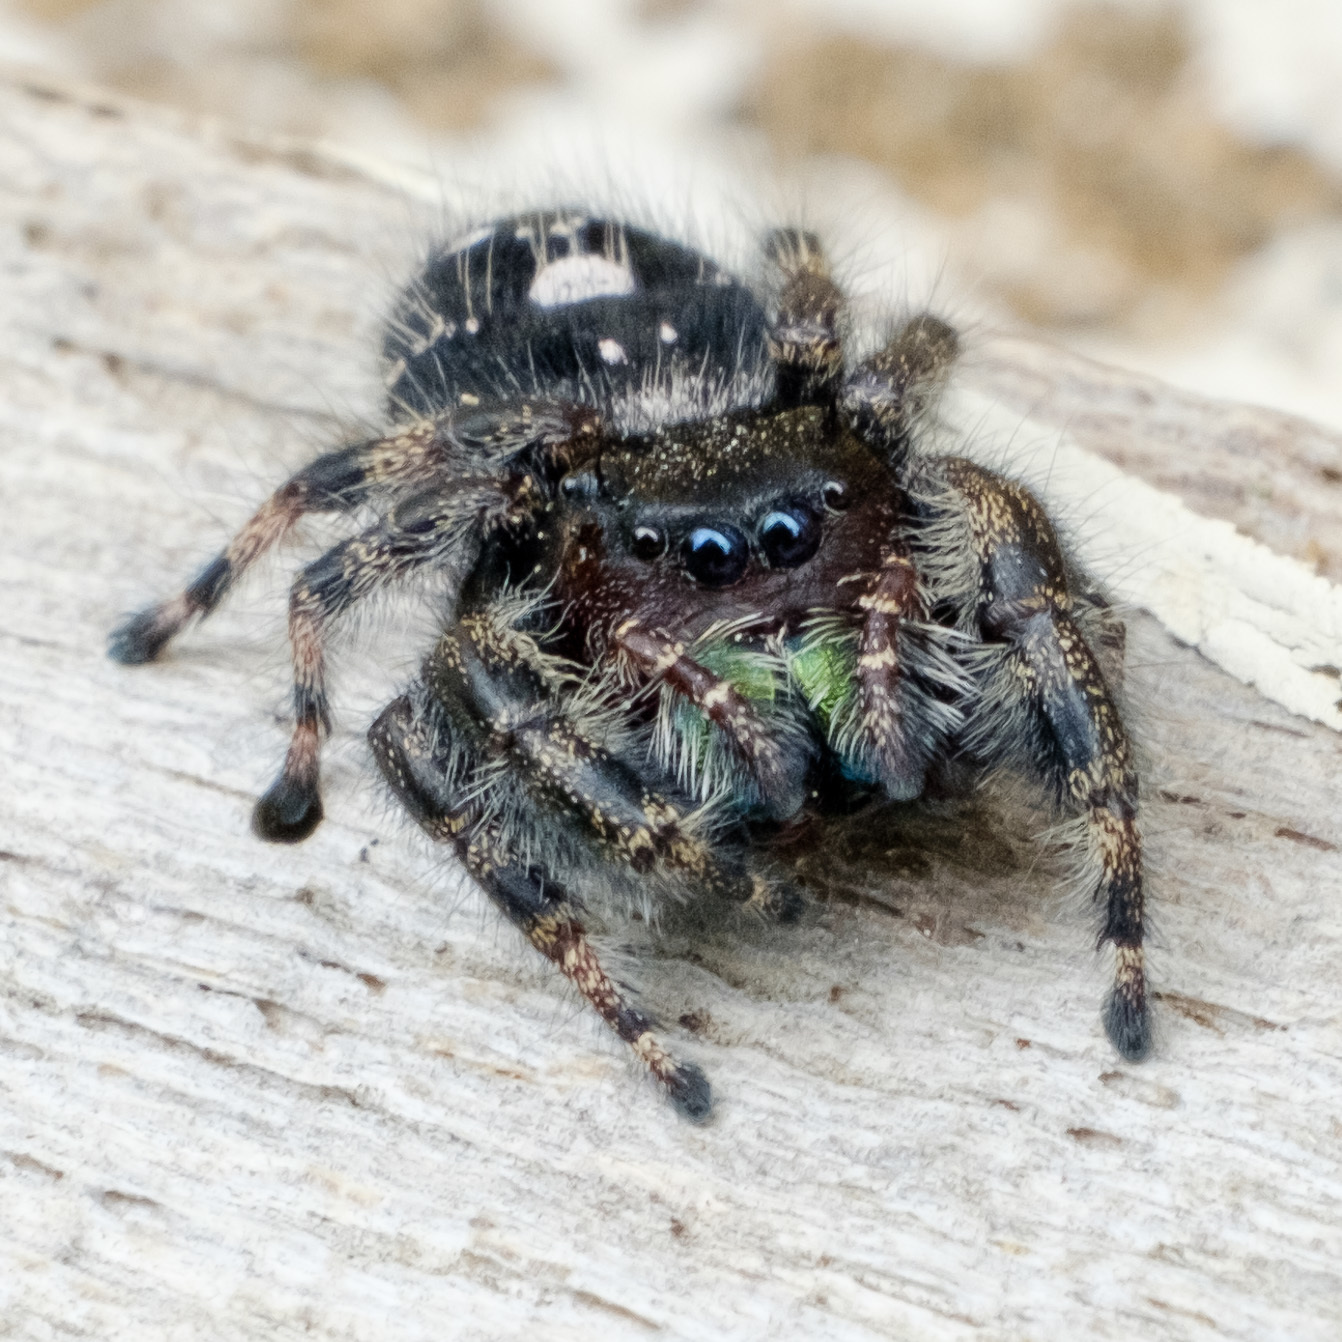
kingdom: Animalia
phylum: Arthropoda
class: Arachnida
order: Araneae
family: Salticidae
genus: Phidippus
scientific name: Phidippus audax
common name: Bold jumper
